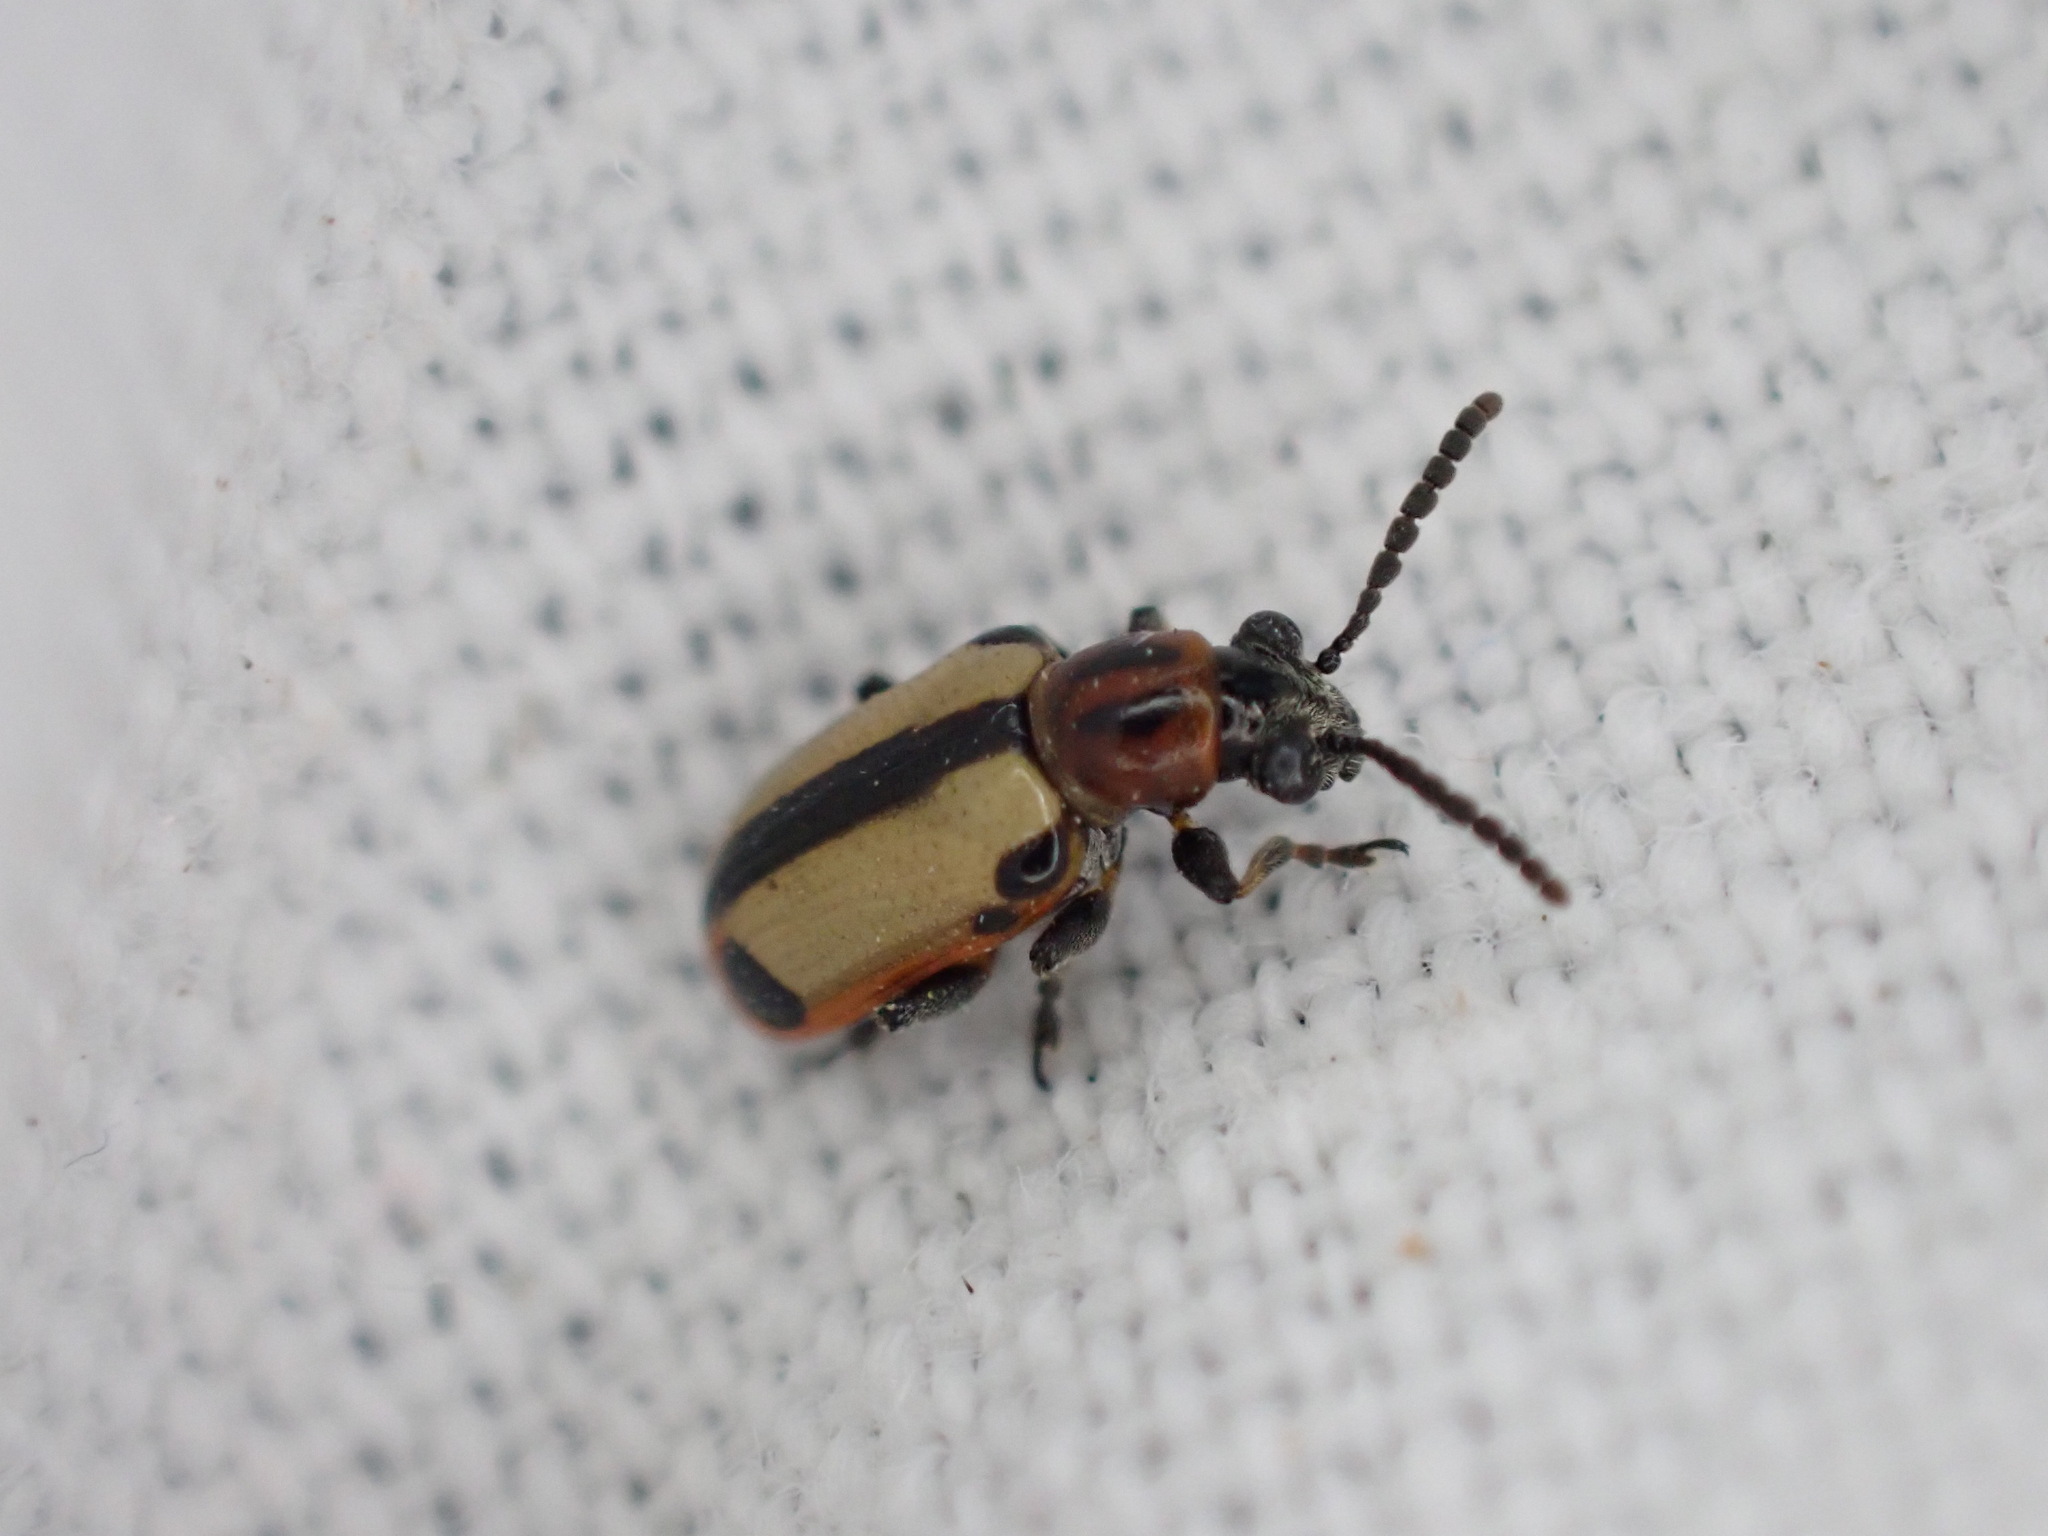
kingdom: Animalia
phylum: Arthropoda
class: Insecta
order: Coleoptera
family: Chrysomelidae
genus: Crioceris
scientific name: Crioceris paracenthesis
